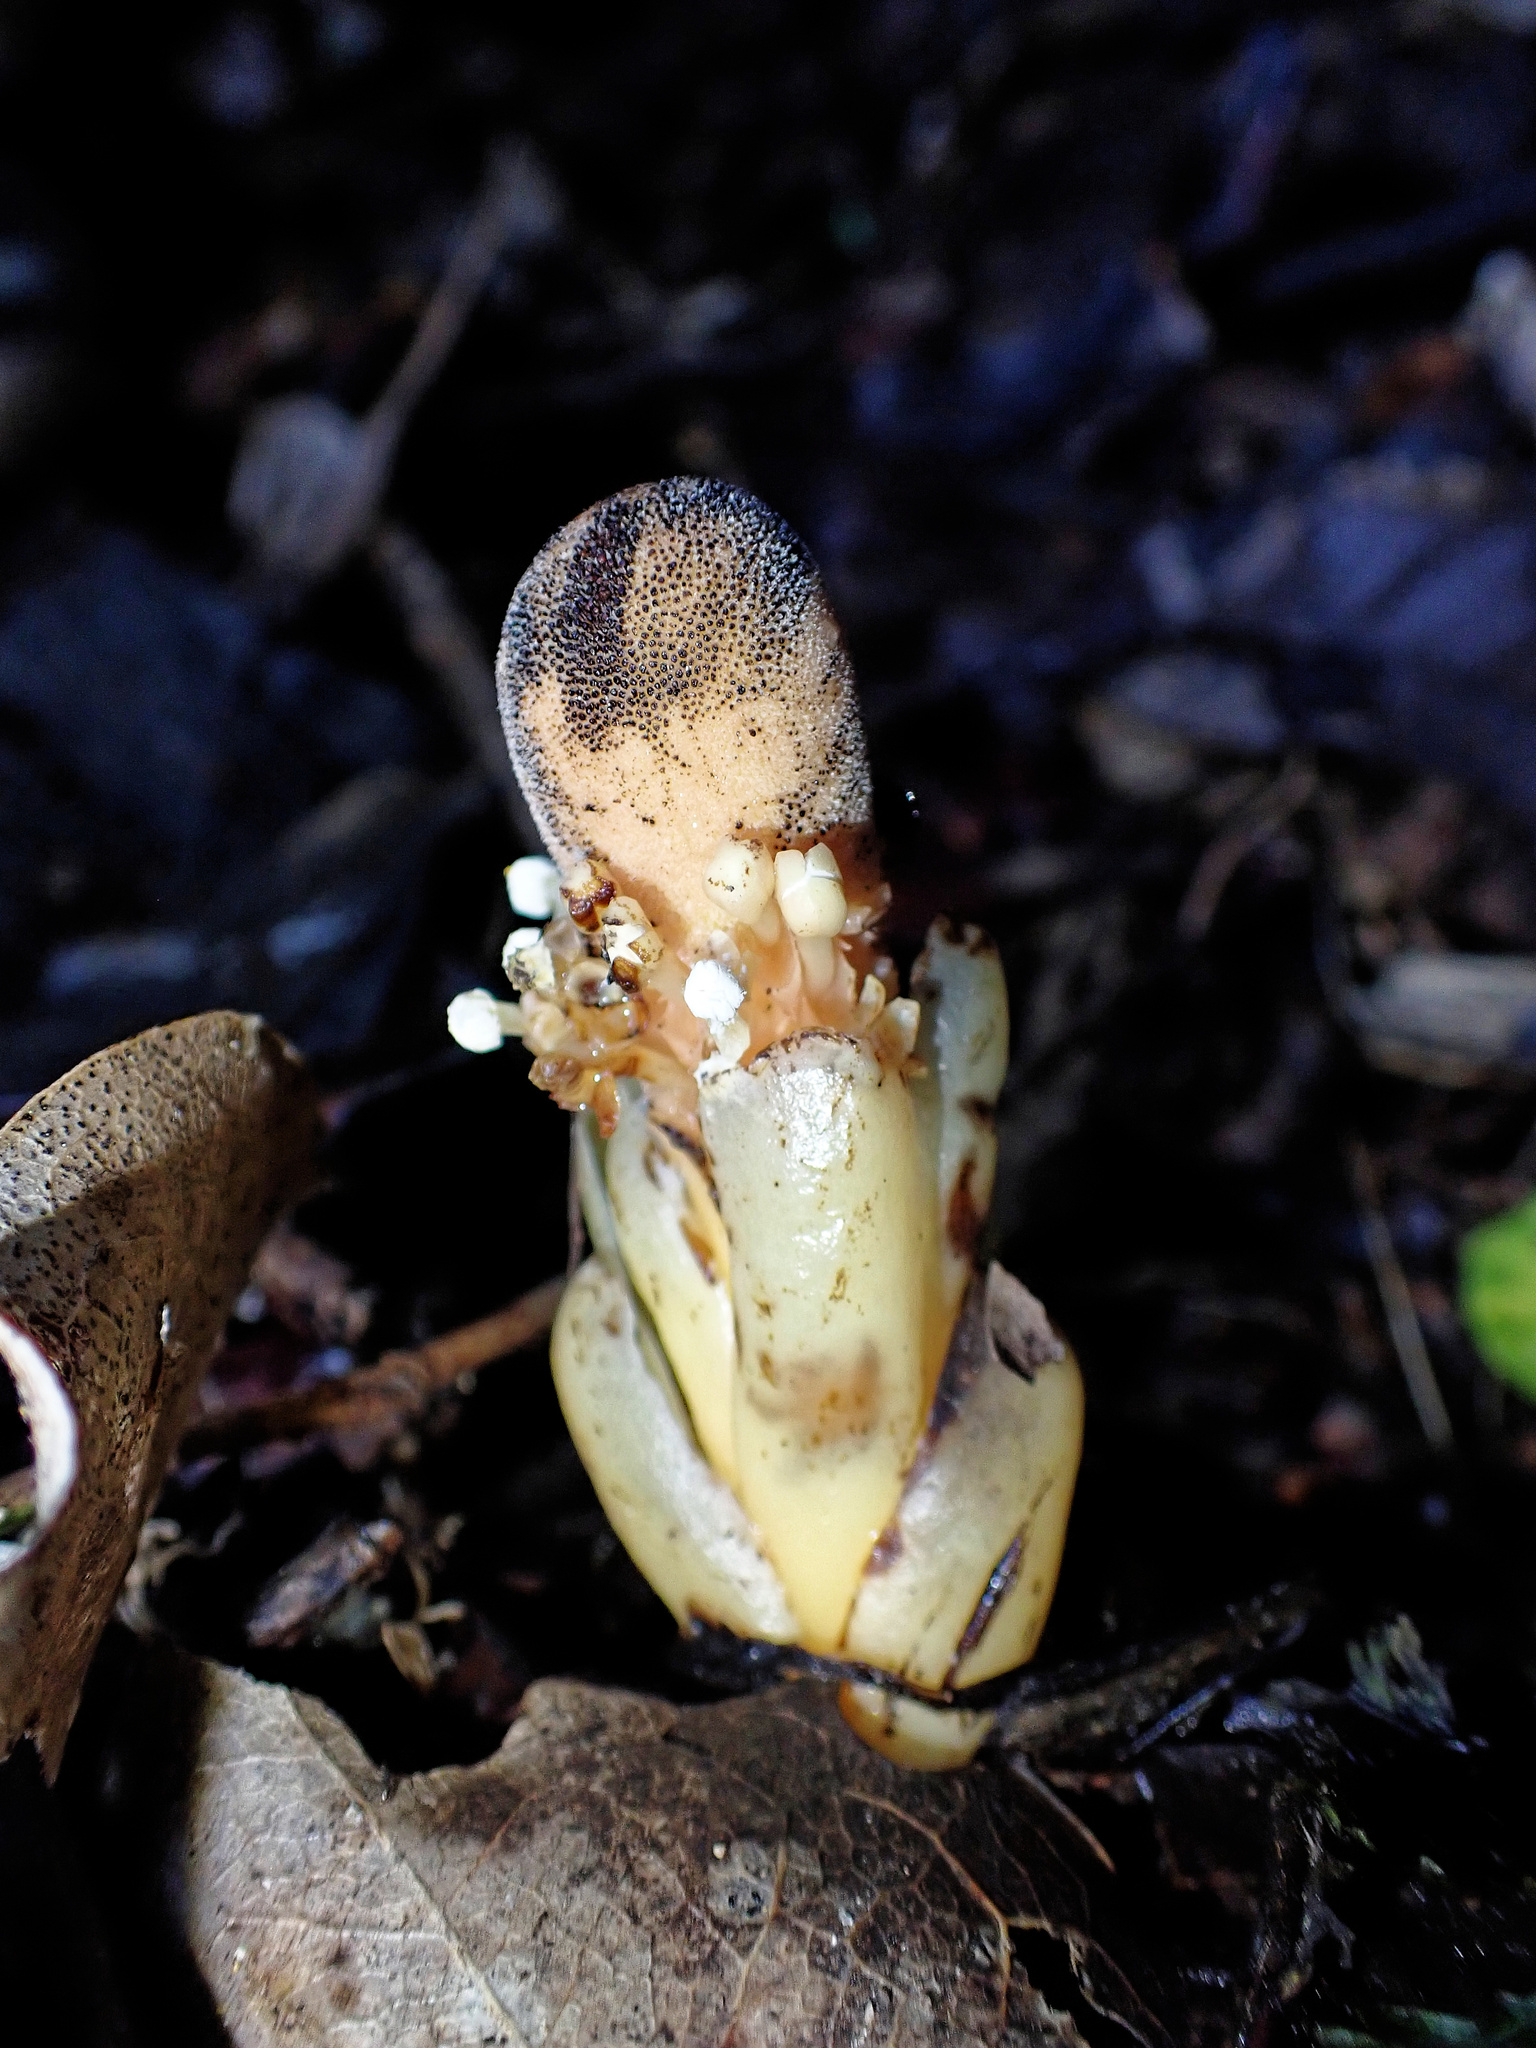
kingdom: Plantae
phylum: Tracheophyta
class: Magnoliopsida
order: Santalales
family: Balanophoraceae
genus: Balanophora
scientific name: Balanophora fungosa
